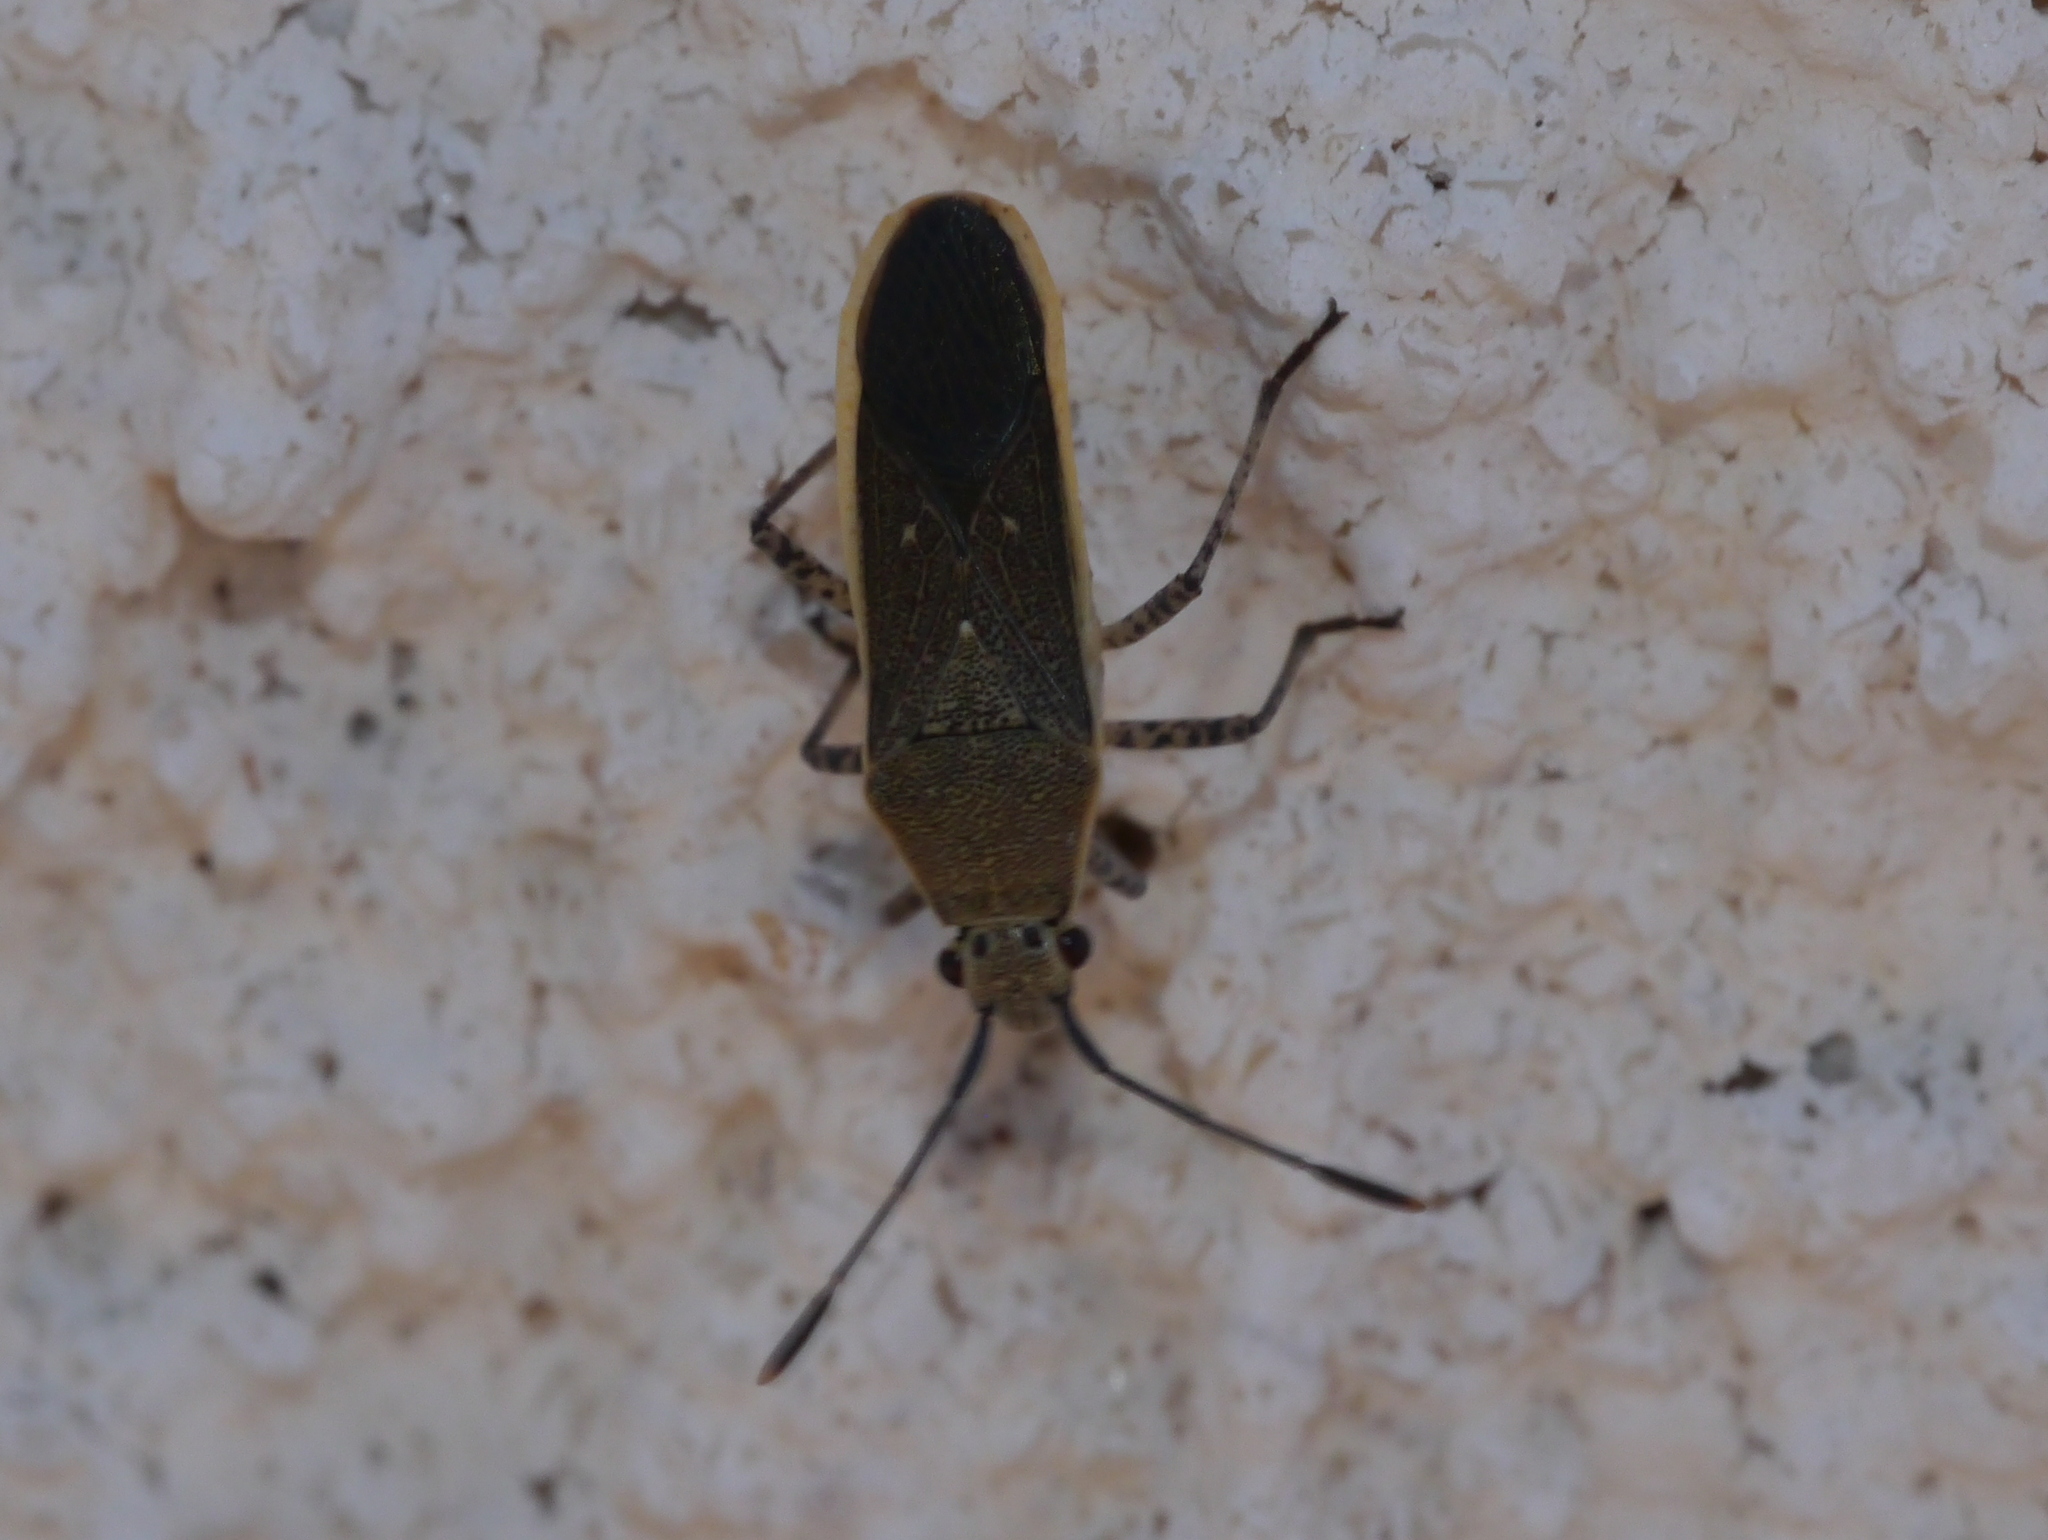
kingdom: Animalia
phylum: Arthropoda
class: Insecta
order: Hemiptera
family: Coreidae
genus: Catorhintha
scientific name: Catorhintha selector
